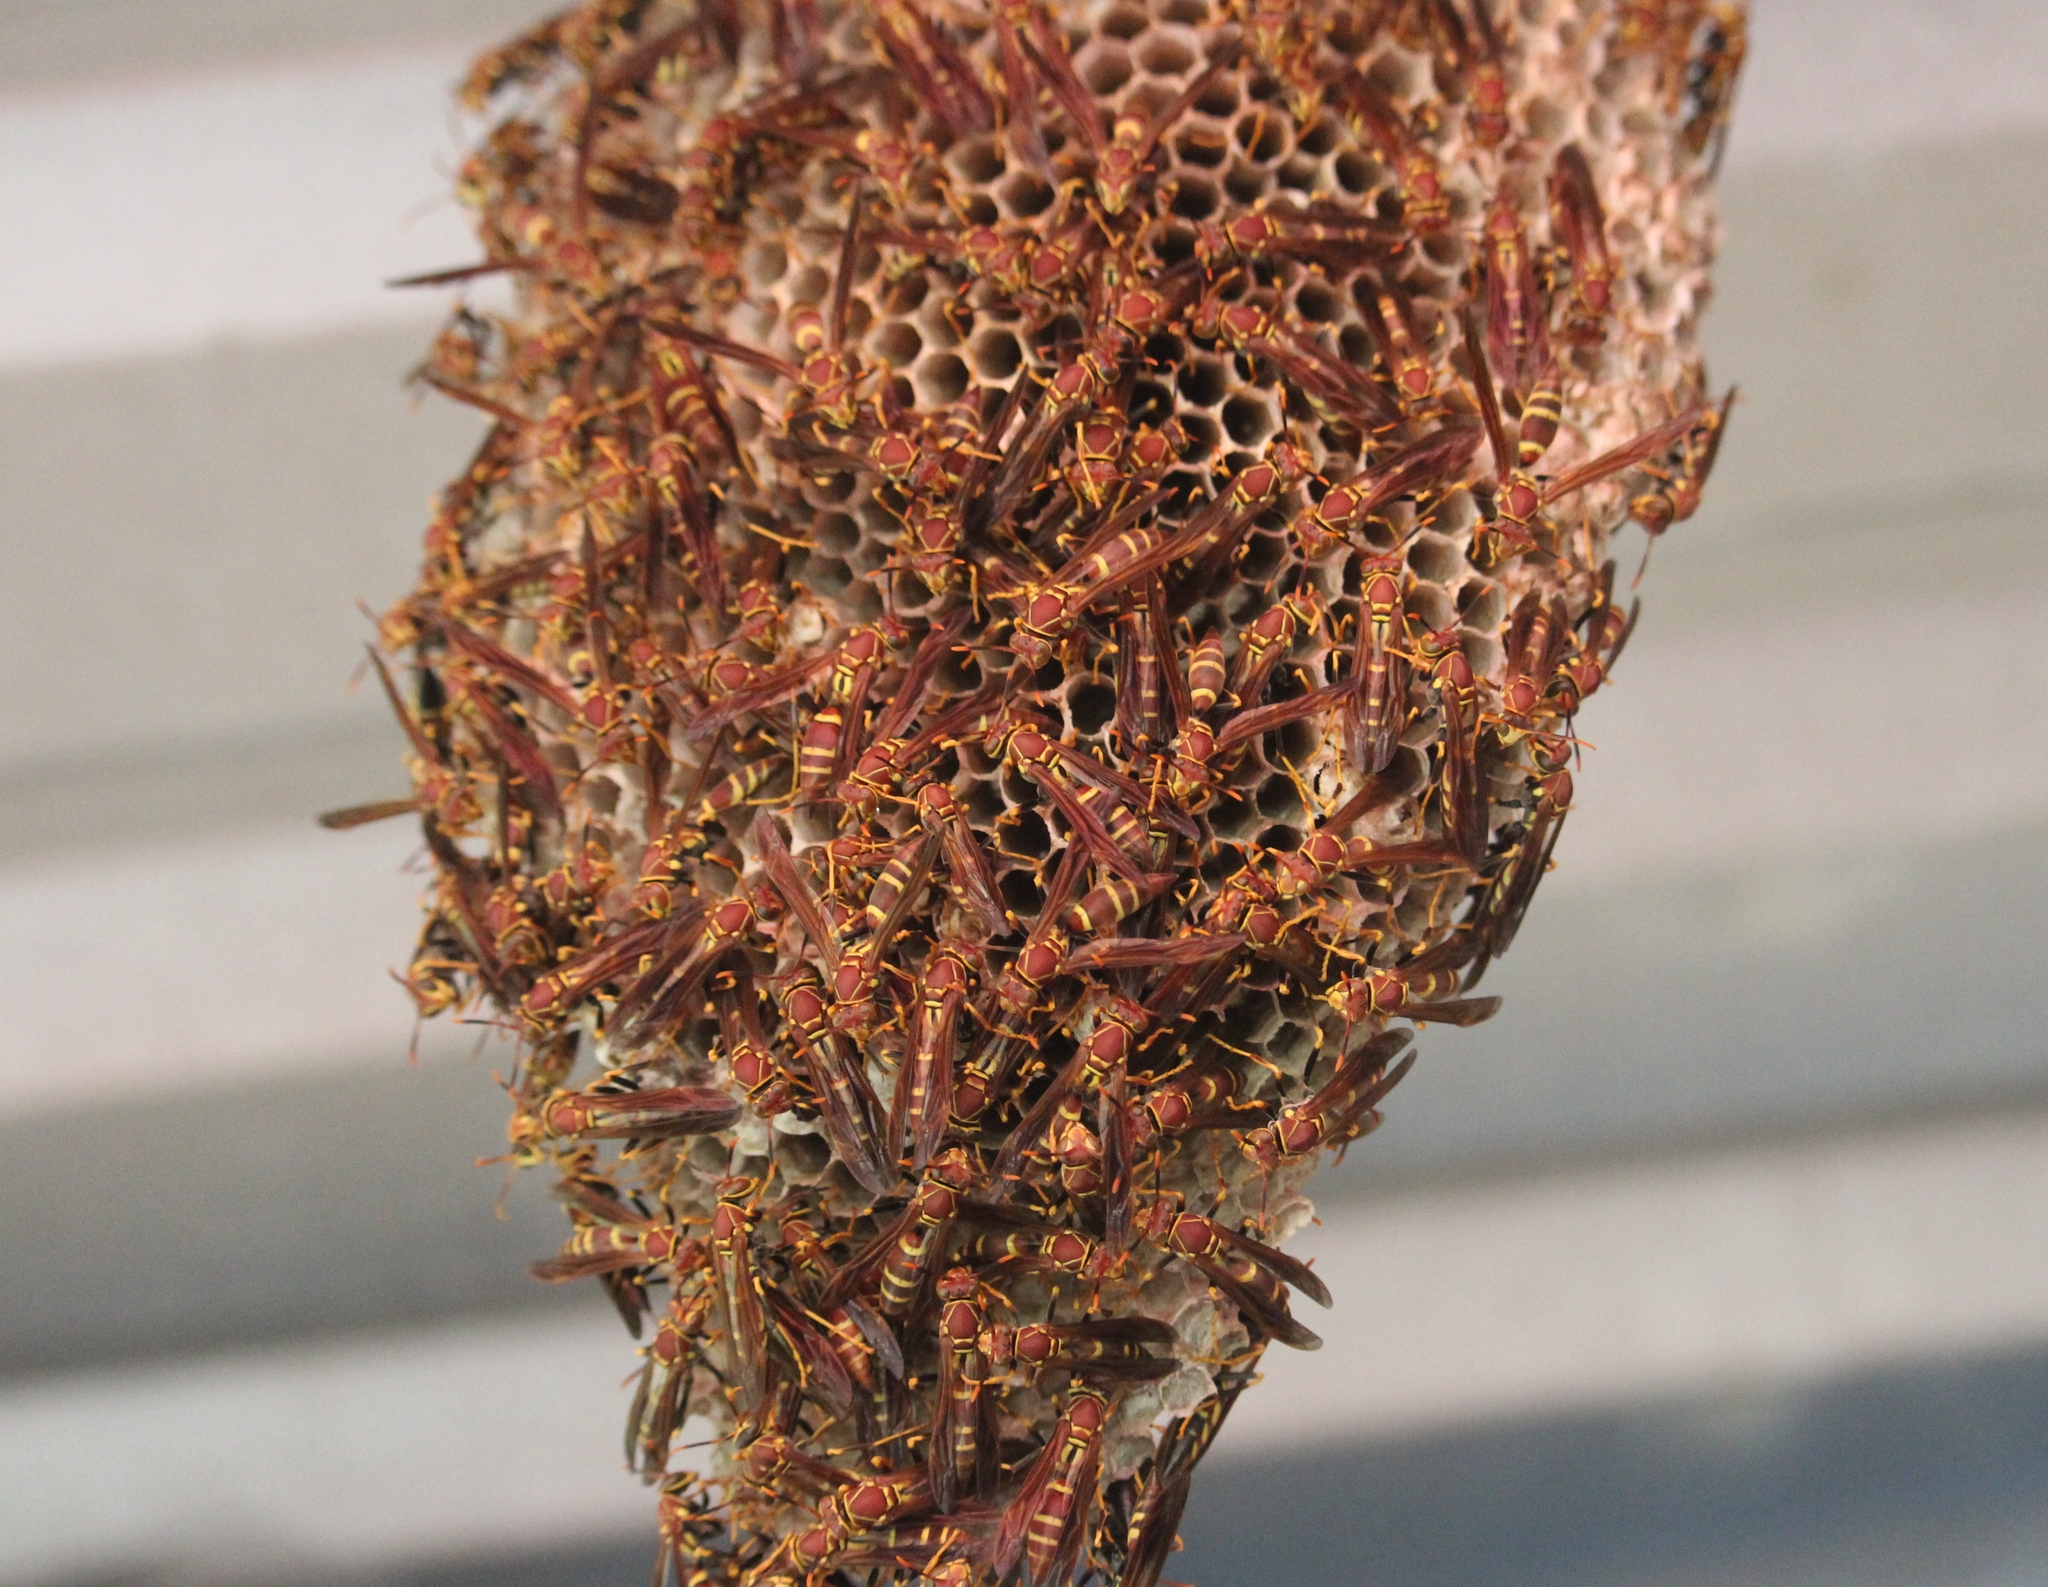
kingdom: Animalia
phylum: Arthropoda
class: Insecta
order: Hymenoptera
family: Eumenidae
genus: Polistes
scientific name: Polistes instabilis
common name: Unstable paper wasp
